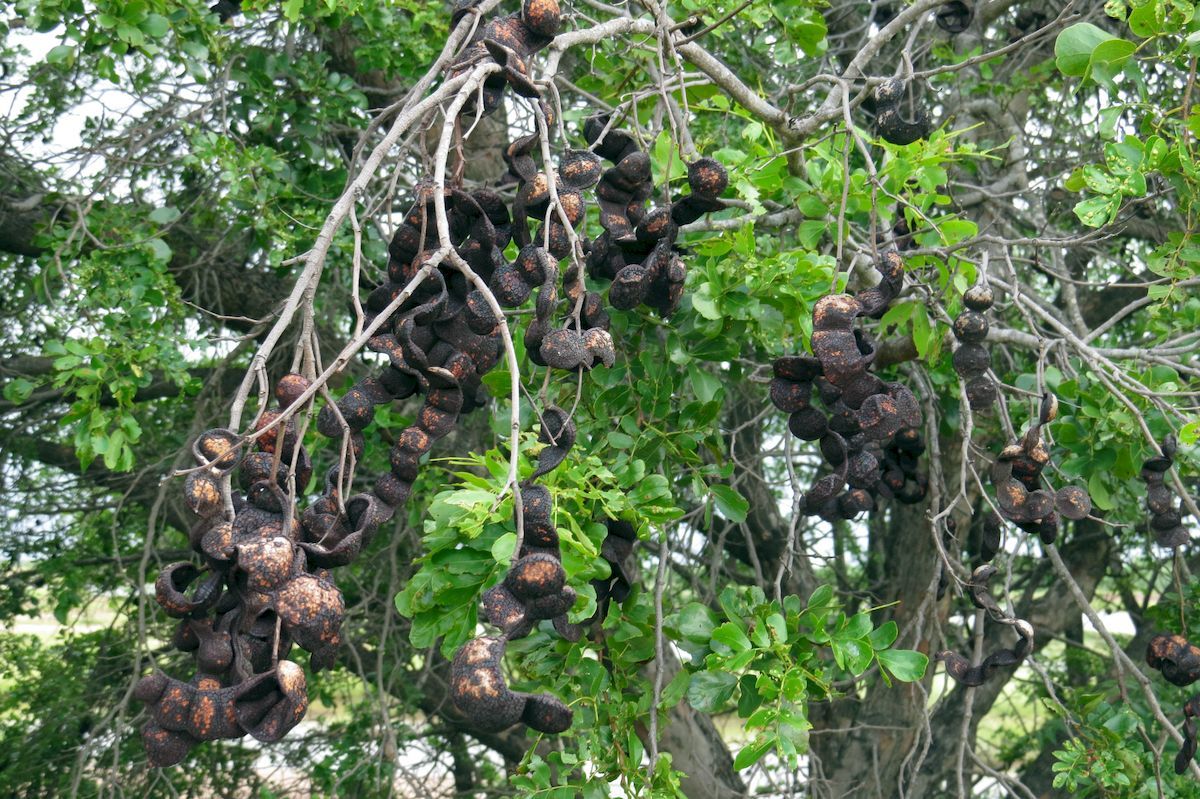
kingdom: Plantae
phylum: Tracheophyta
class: Magnoliopsida
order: Fabales
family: Fabaceae
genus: Cathormion
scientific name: Cathormion umbellatum
